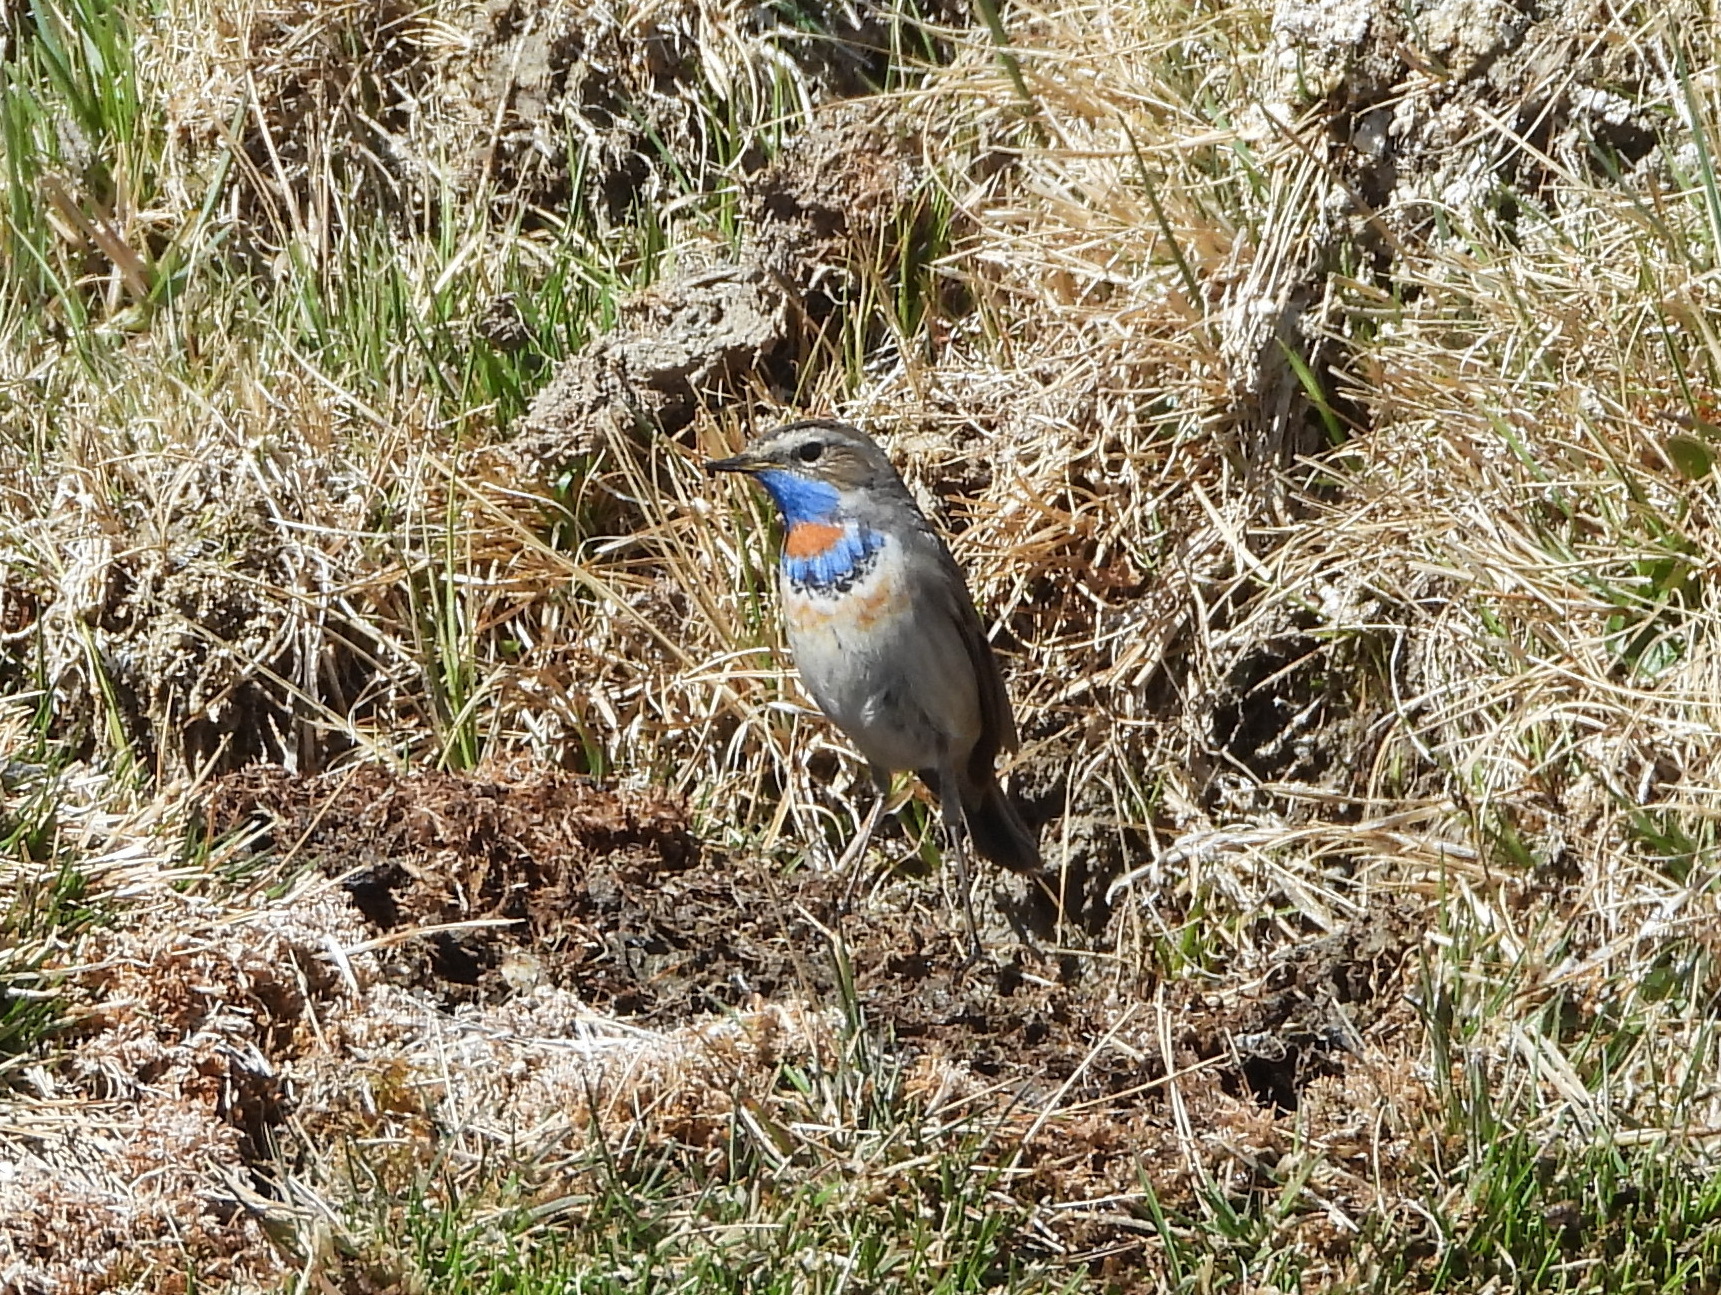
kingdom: Animalia
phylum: Chordata
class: Aves
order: Passeriformes
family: Muscicapidae
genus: Luscinia
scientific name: Luscinia svecica
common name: Bluethroat
